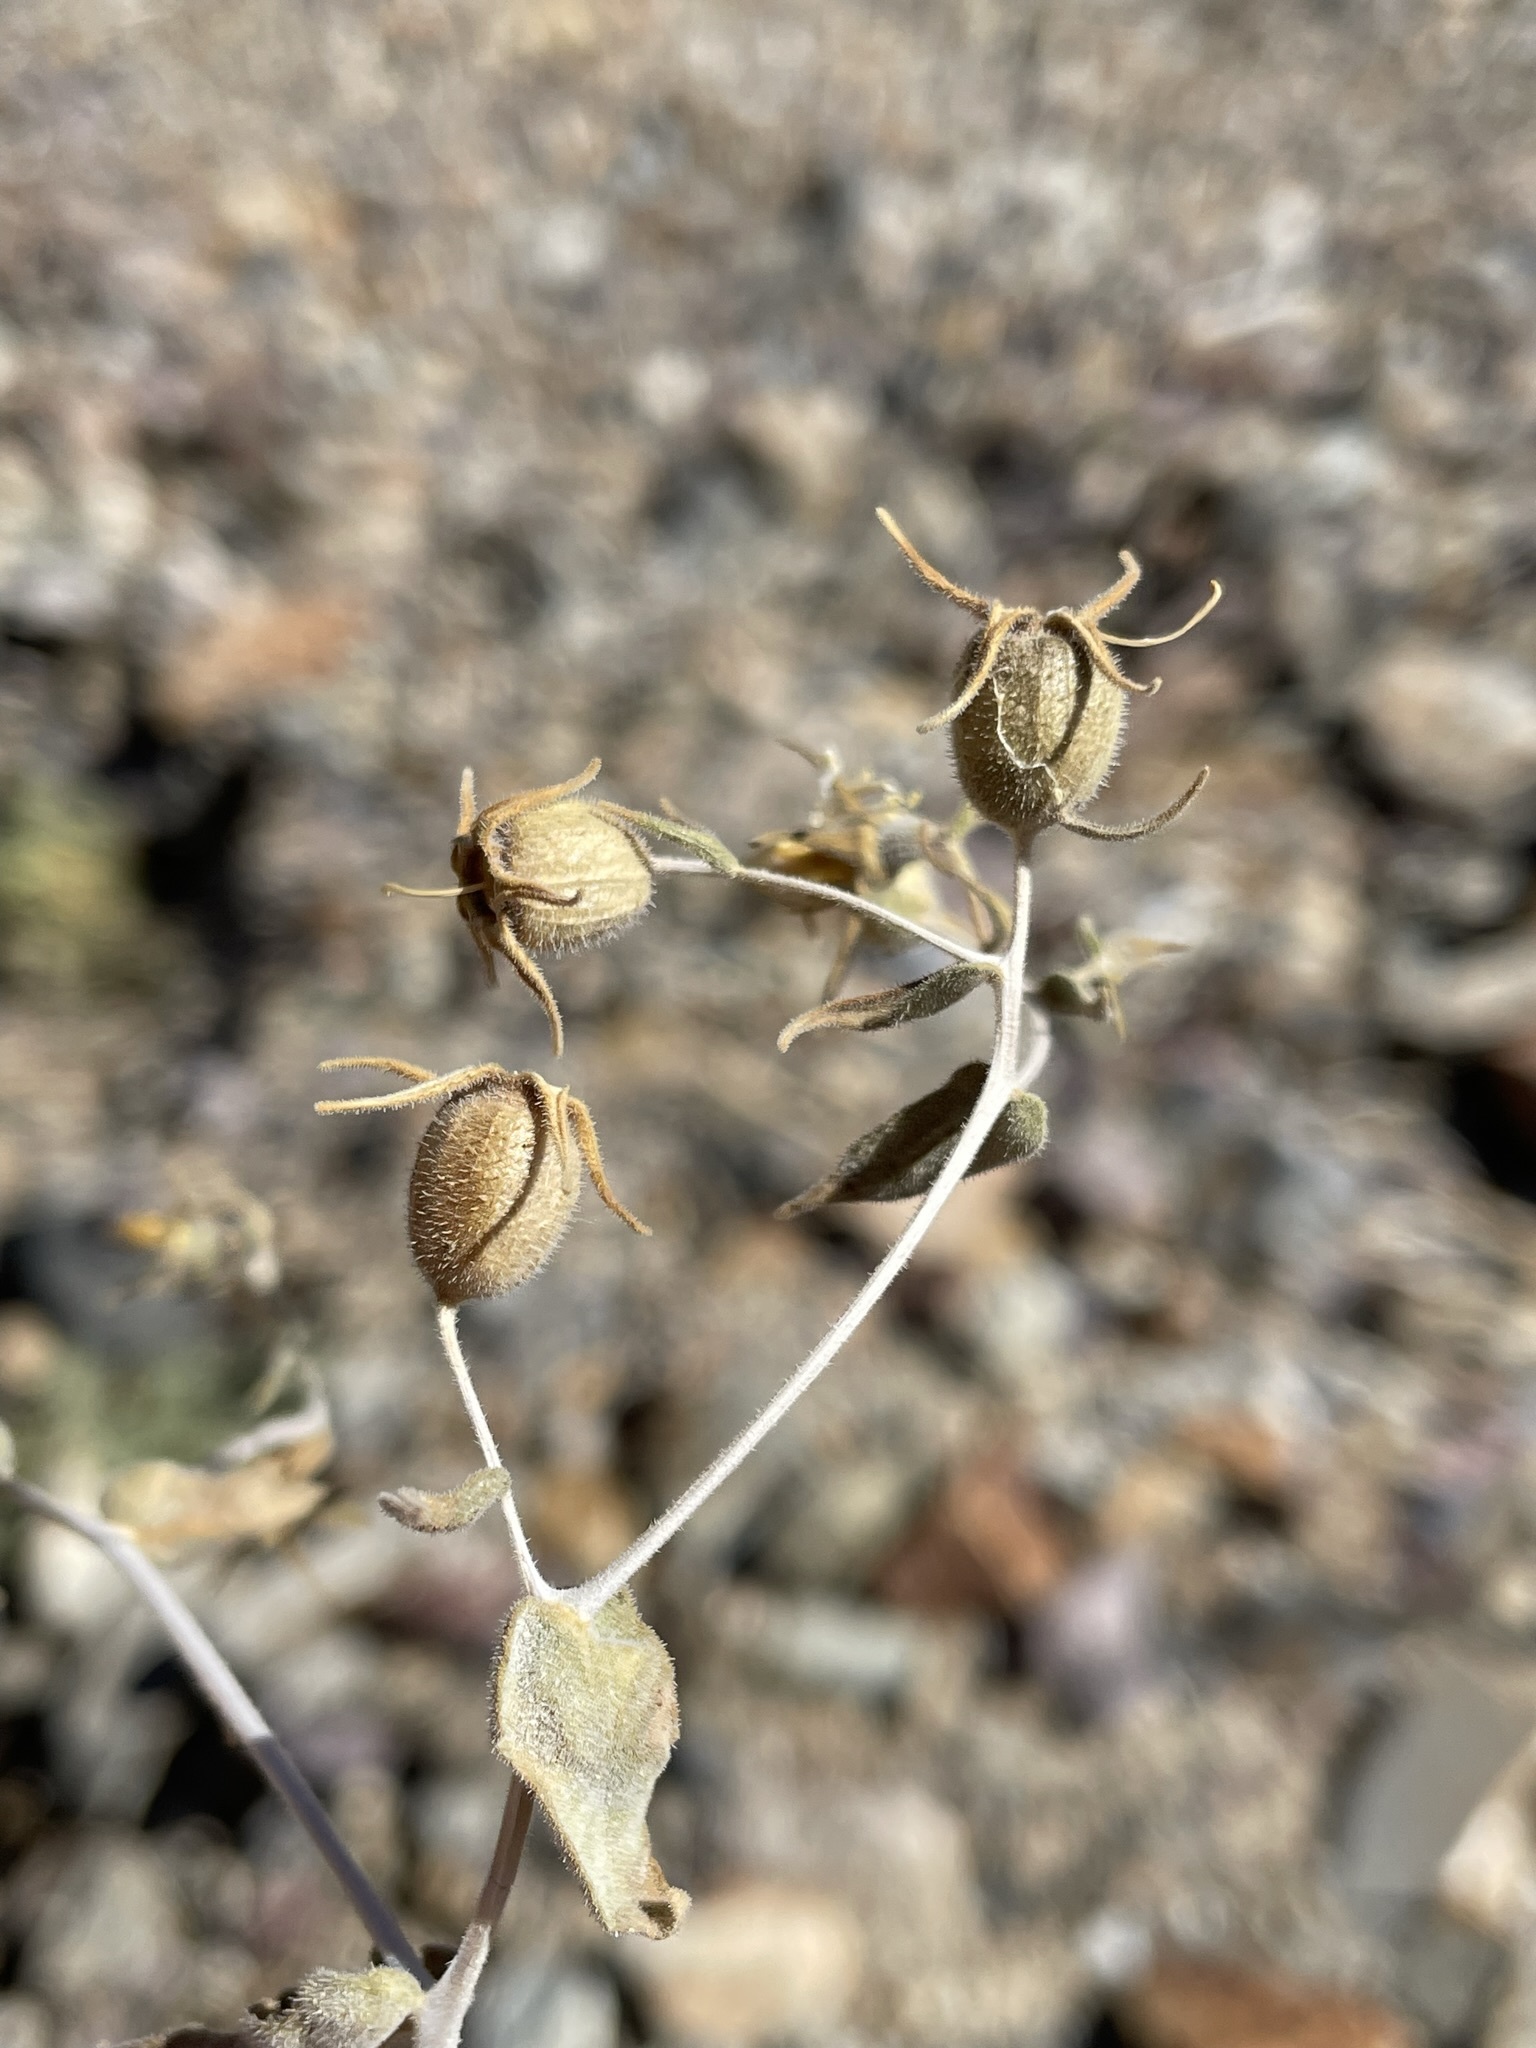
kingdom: Plantae
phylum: Tracheophyta
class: Magnoliopsida
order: Cornales
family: Loasaceae
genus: Mentzelia
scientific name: Mentzelia oreophila
